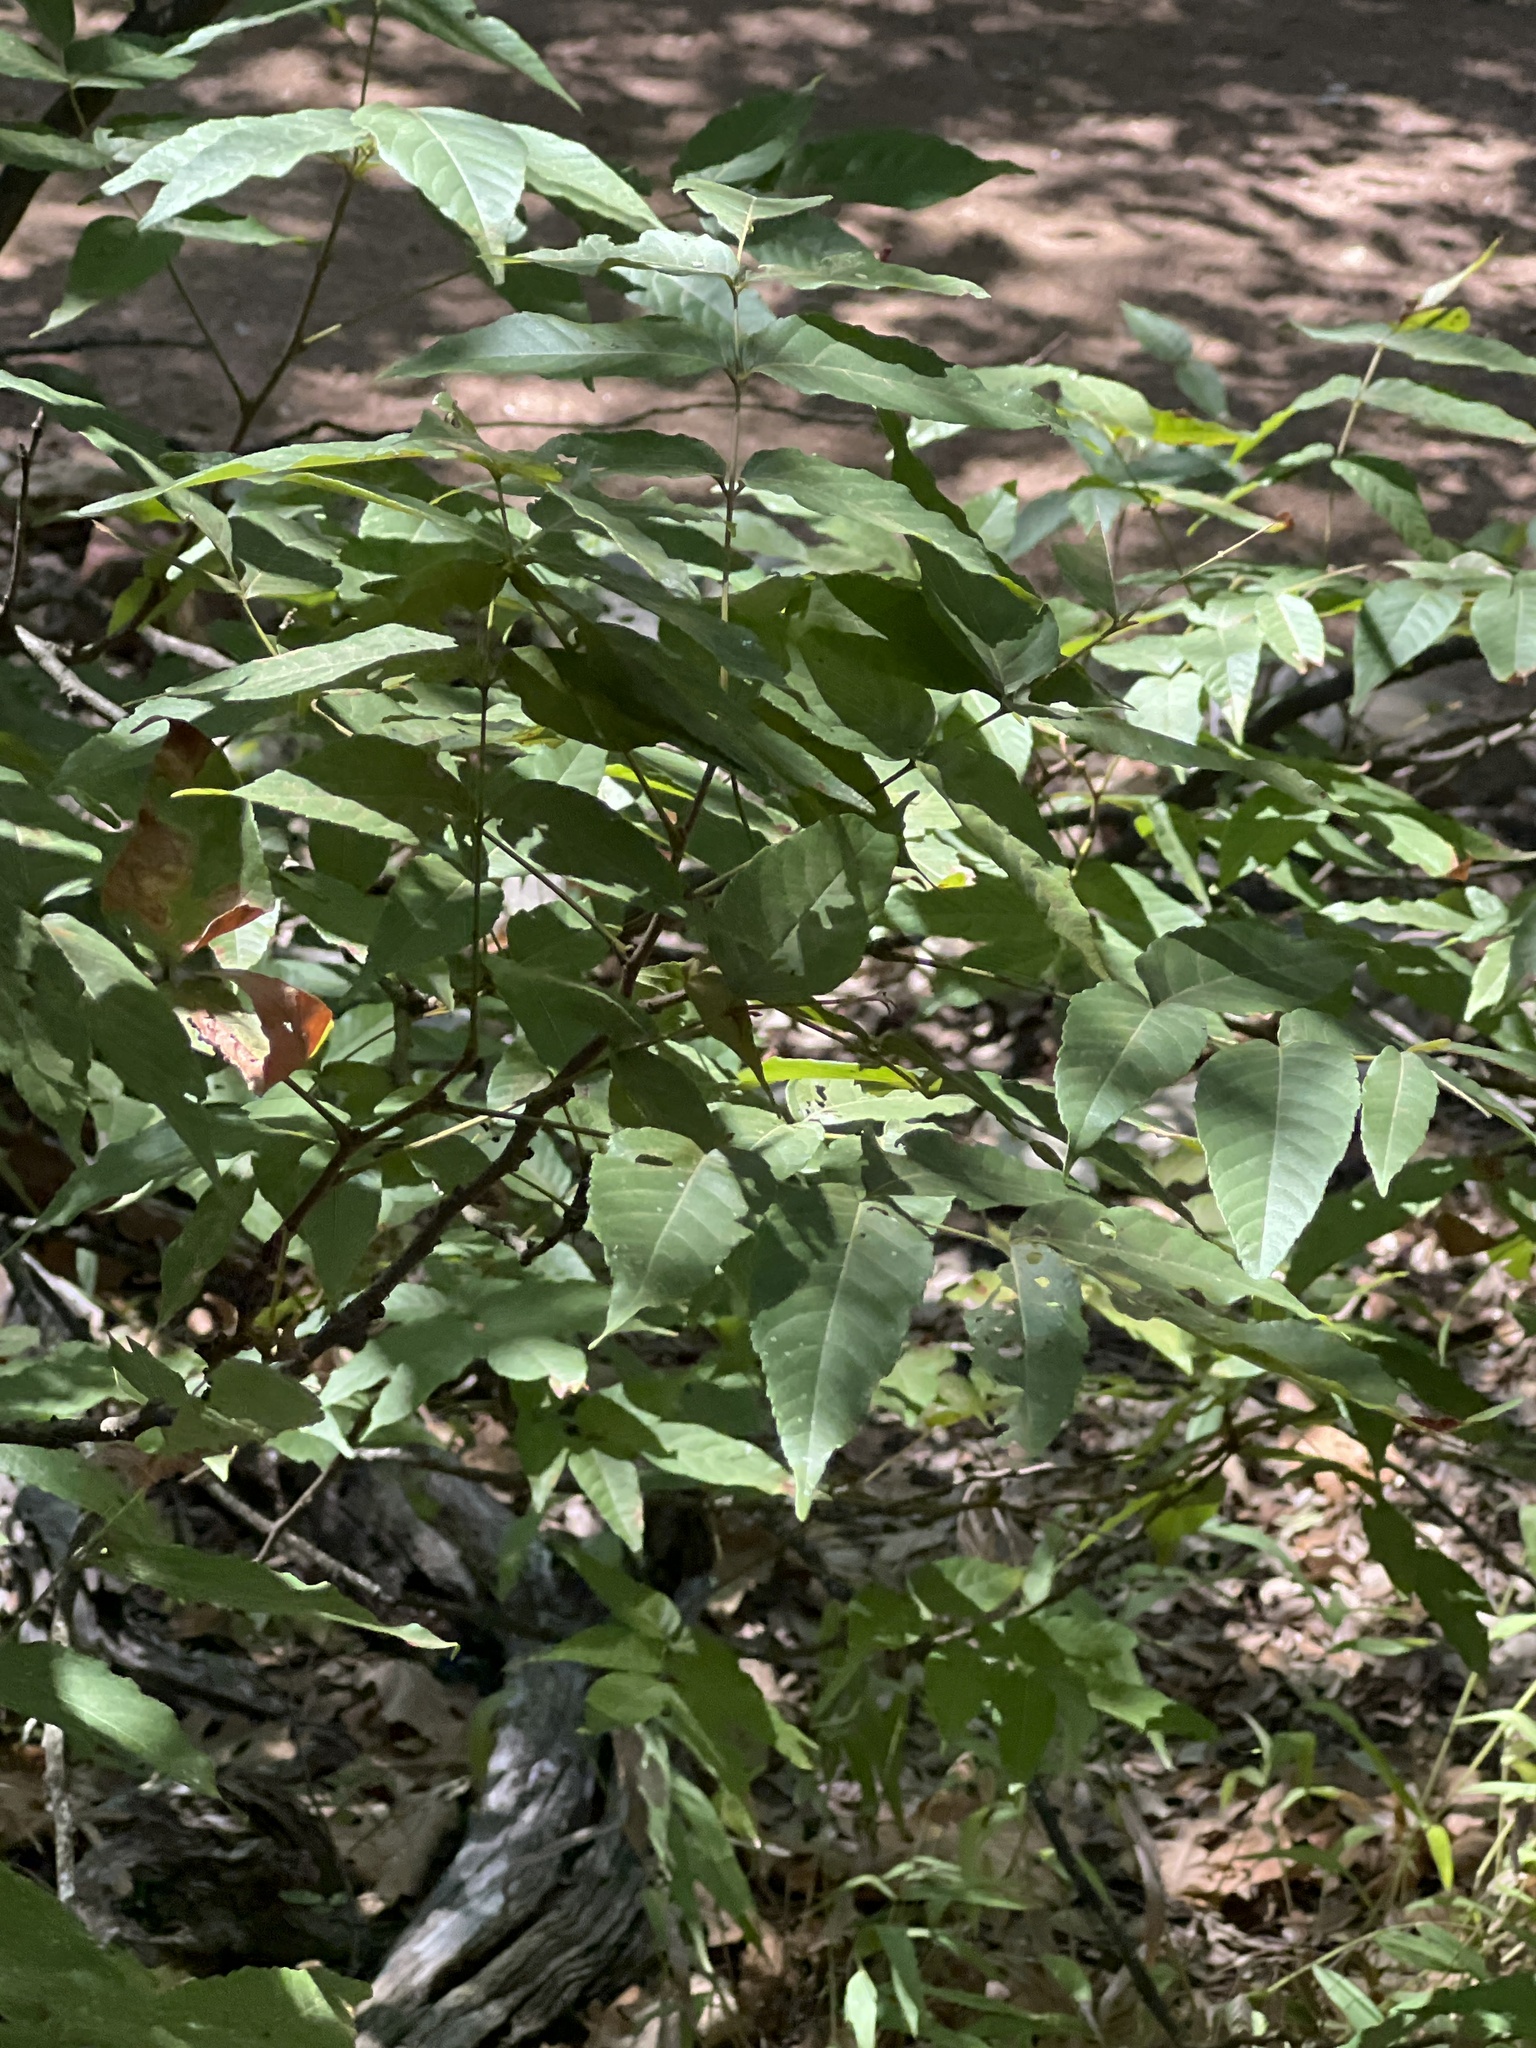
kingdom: Plantae
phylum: Tracheophyta
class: Magnoliopsida
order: Sapindales
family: Sapindaceae
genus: Ungnadia
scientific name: Ungnadia speciosa
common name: Texas-buckeye
